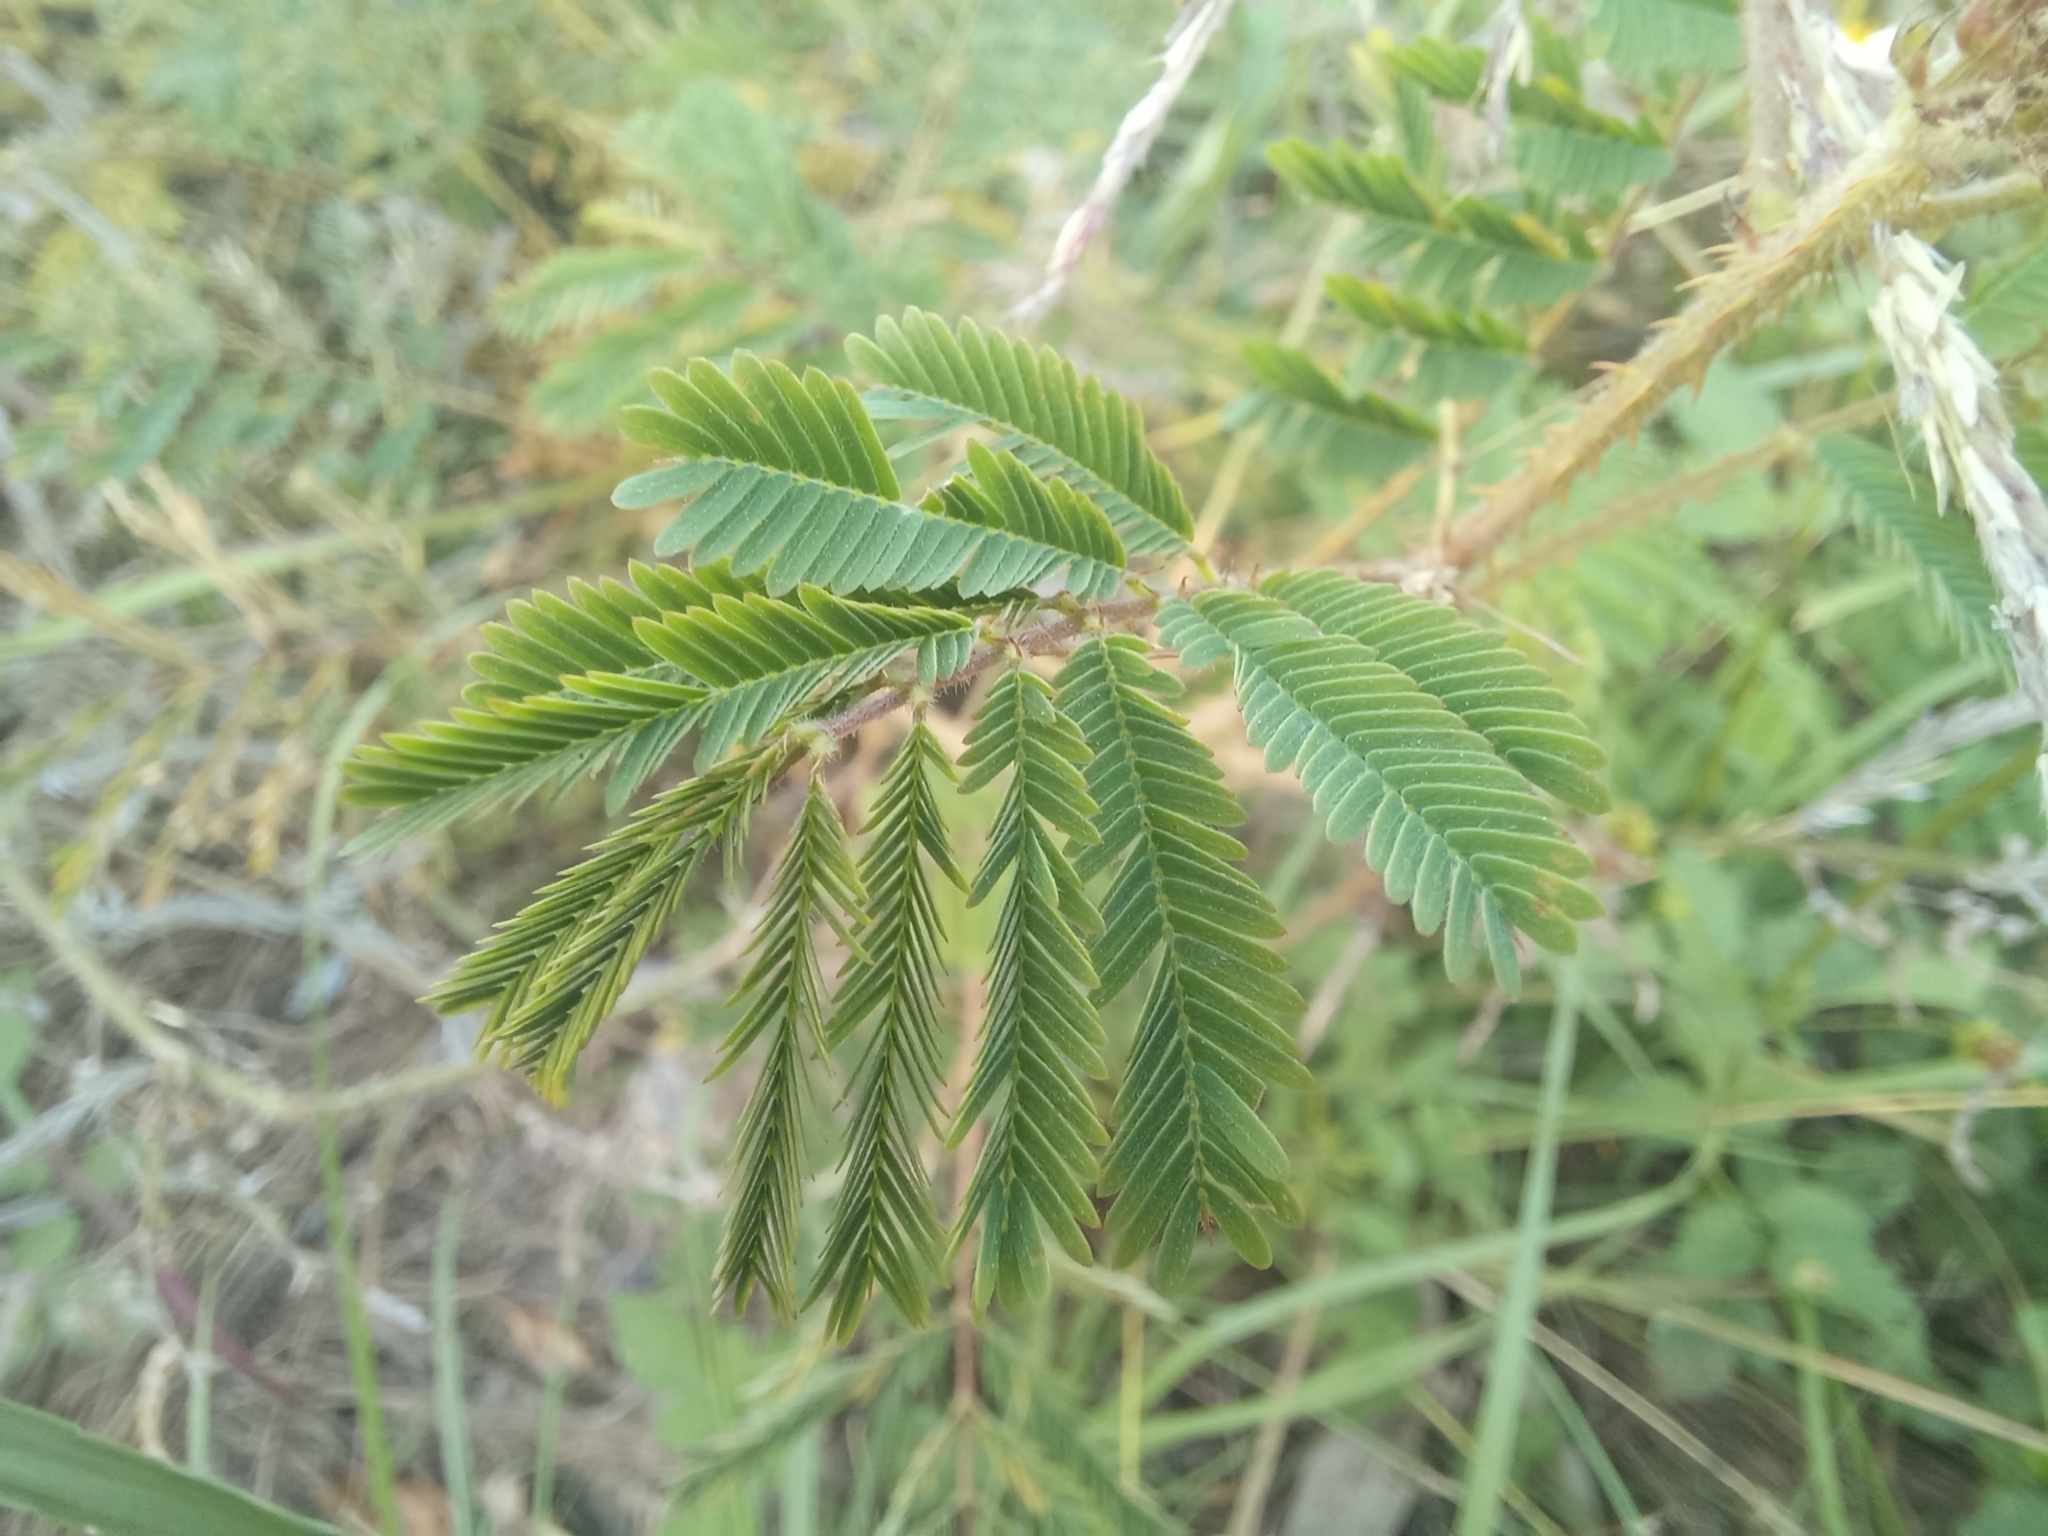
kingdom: Plantae
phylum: Tracheophyta
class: Magnoliopsida
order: Fabales
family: Fabaceae
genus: Mimosa
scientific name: Mimosa diplotricha
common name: Giant sensitive-plant
